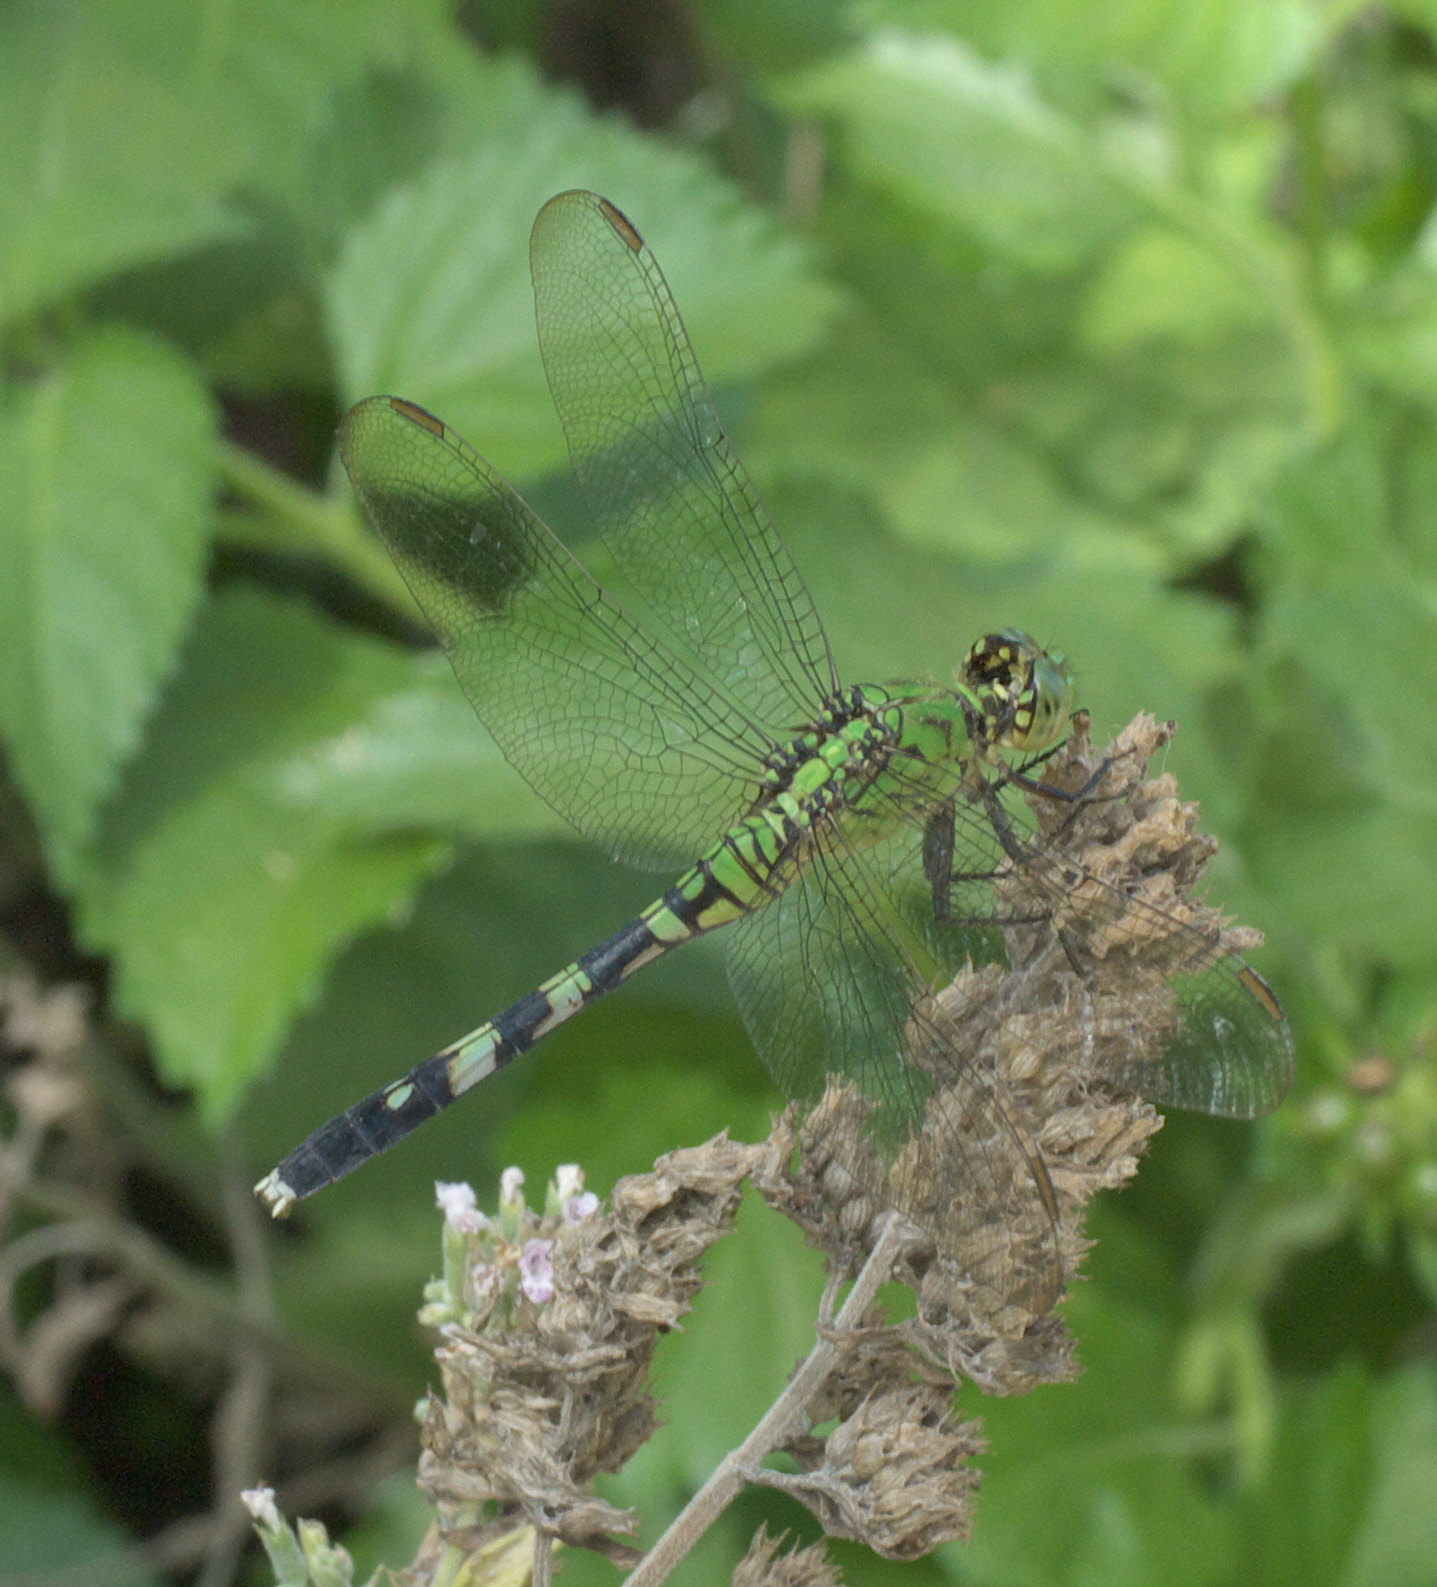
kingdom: Animalia
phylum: Arthropoda
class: Insecta
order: Odonata
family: Libellulidae
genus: Erythemis
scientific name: Erythemis simplicicollis
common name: Eastern pondhawk
